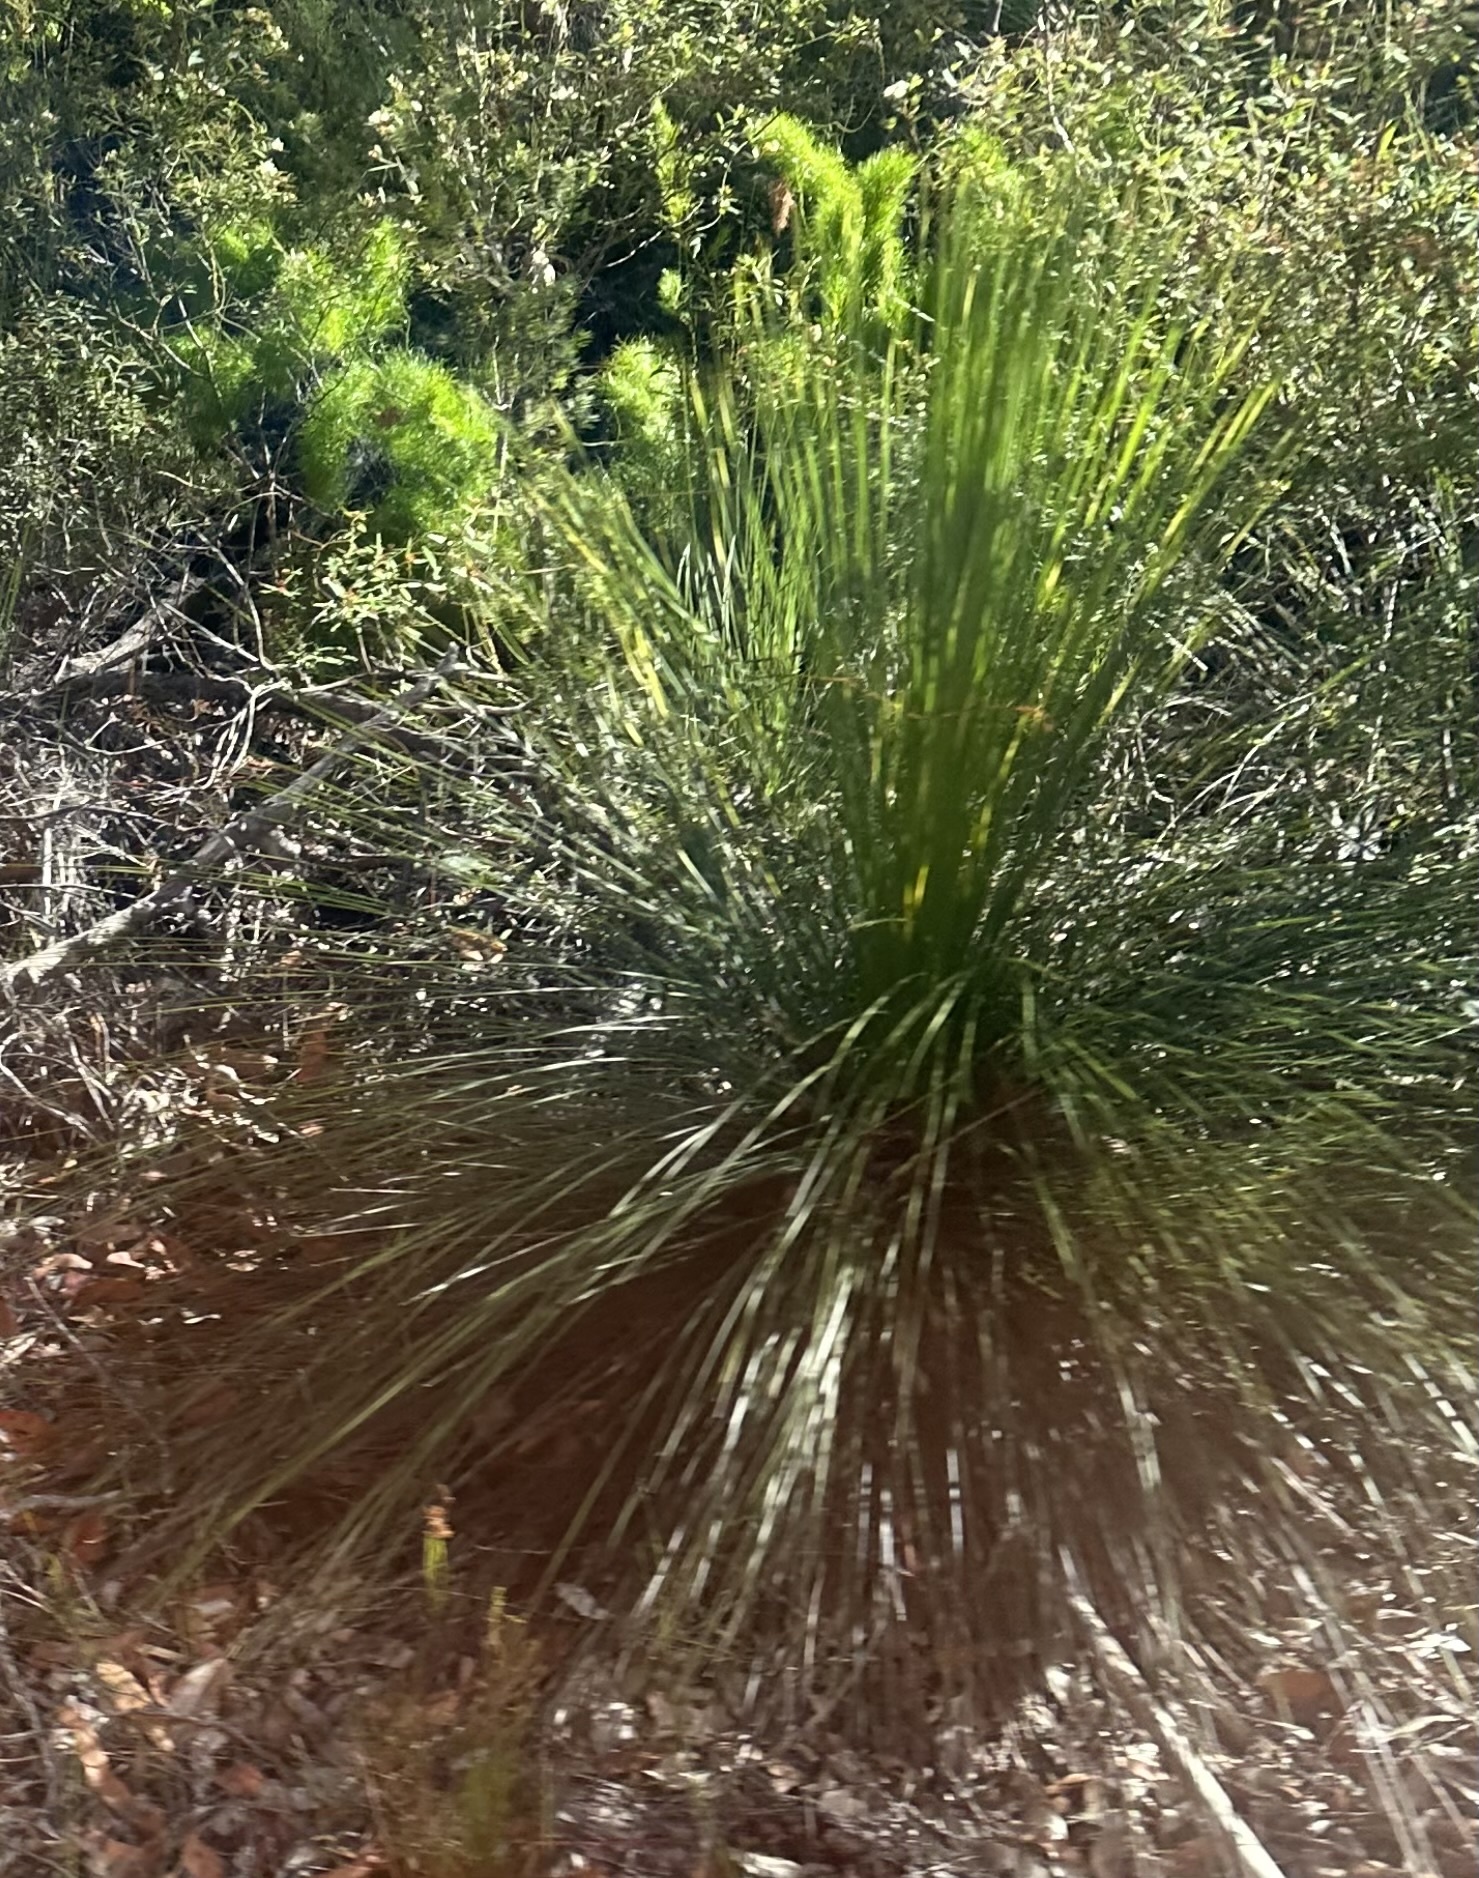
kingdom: Plantae
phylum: Tracheophyta
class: Liliopsida
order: Asparagales
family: Asphodelaceae
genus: Xanthorrhoea
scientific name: Xanthorrhoea latifolia
